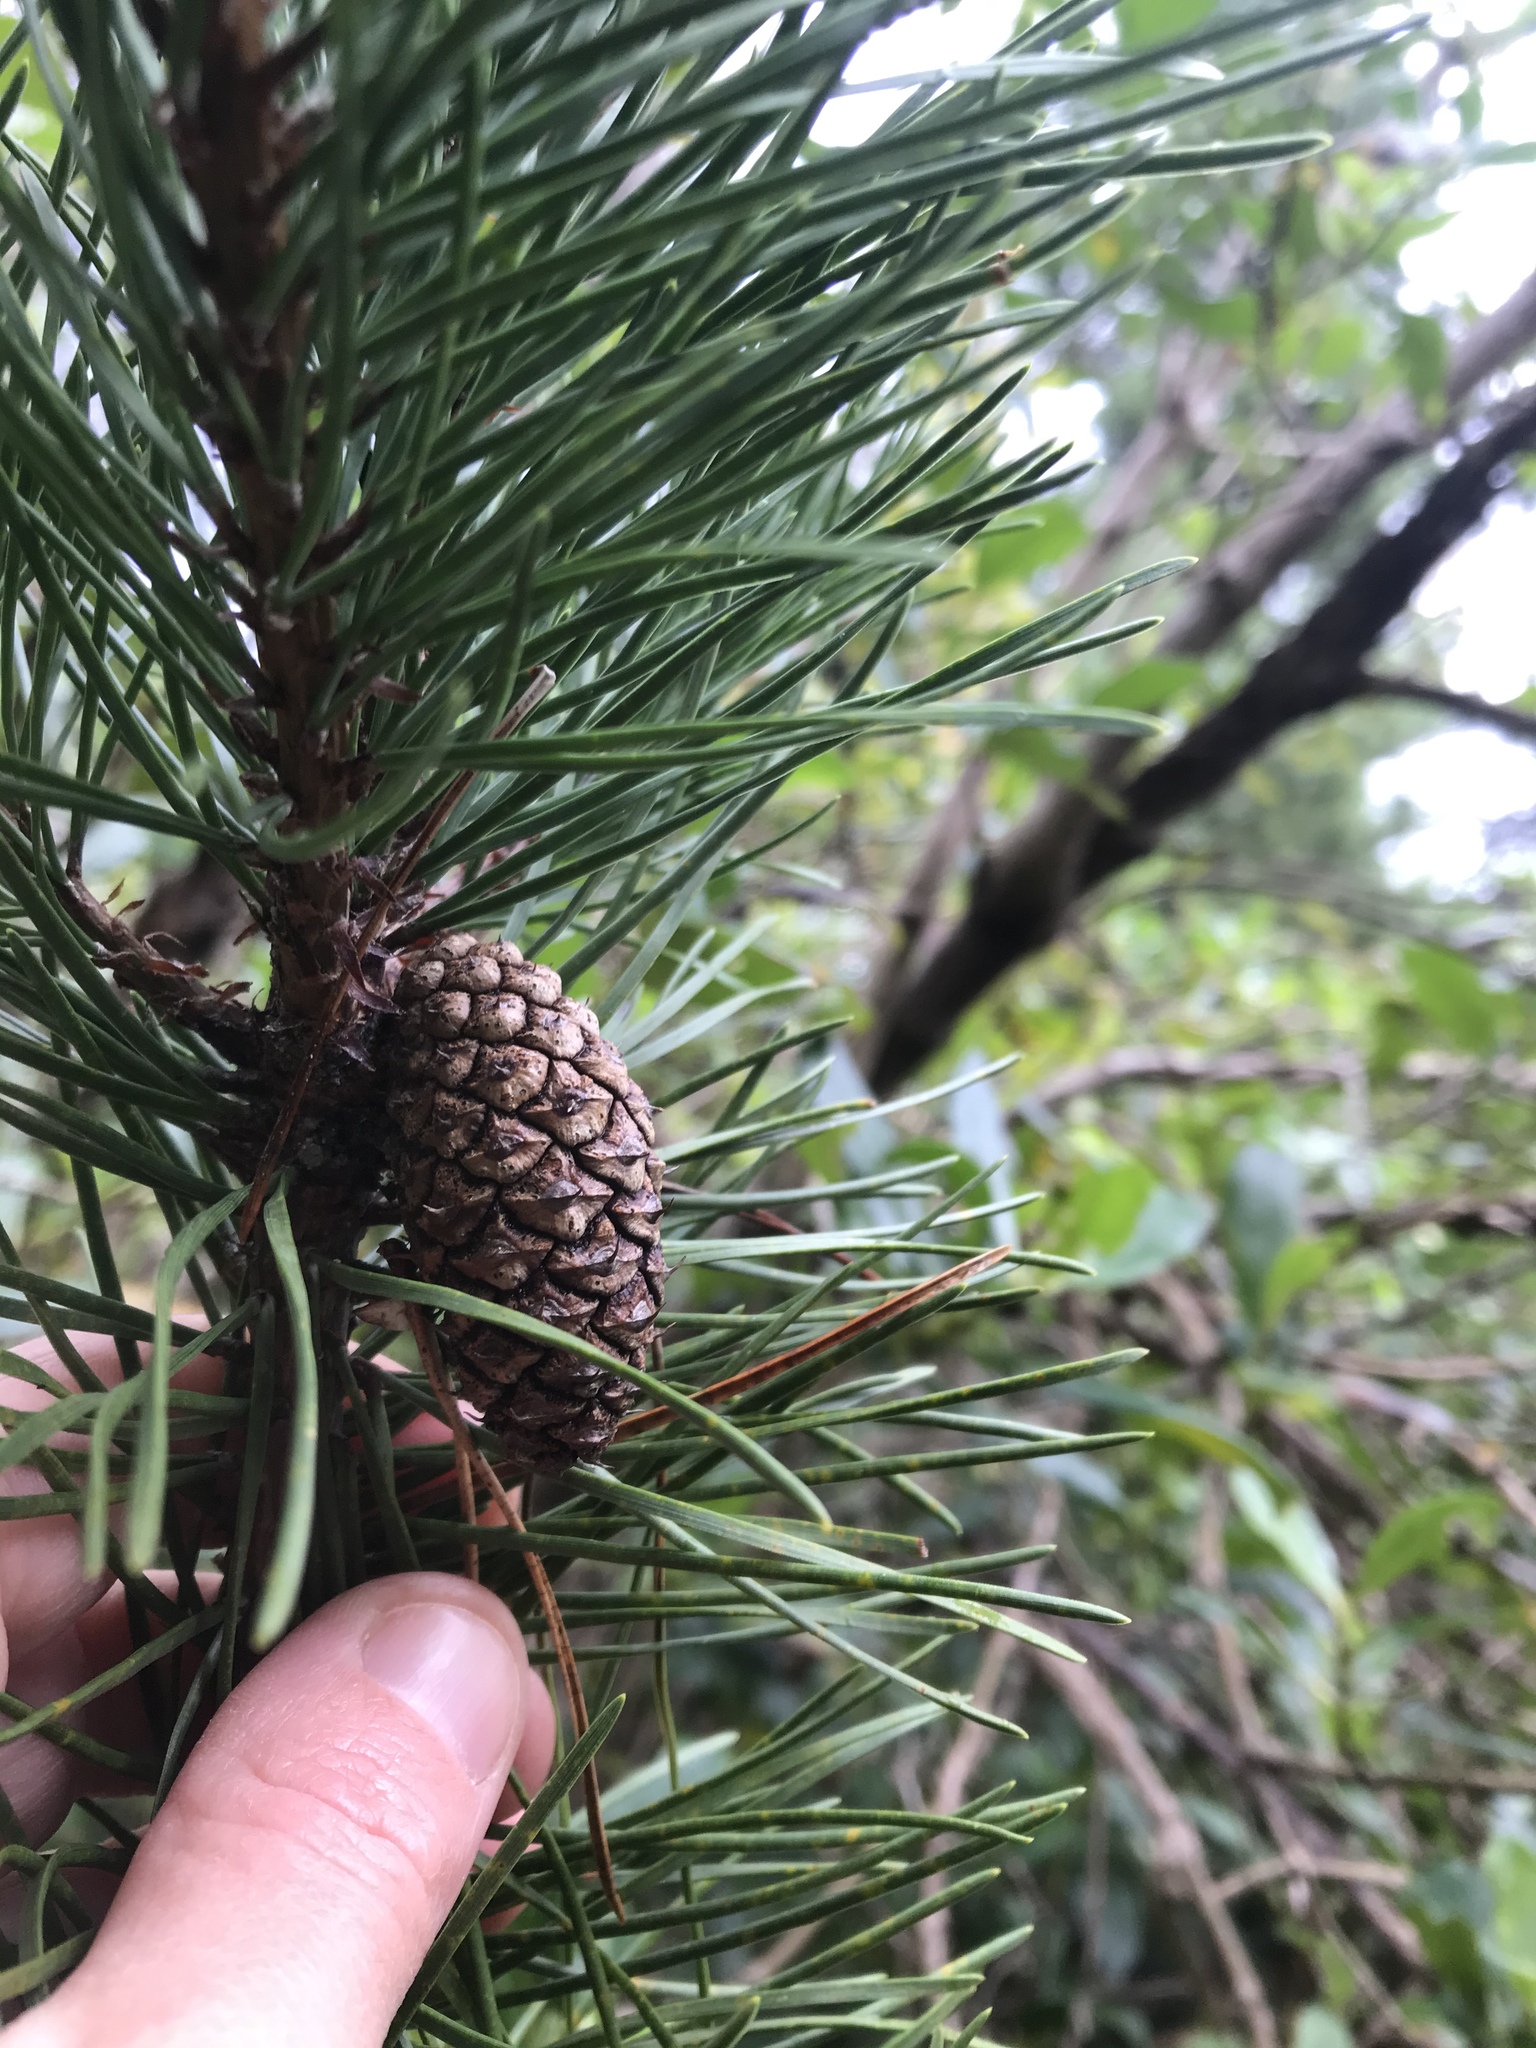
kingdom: Plantae
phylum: Tracheophyta
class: Pinopsida
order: Pinales
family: Pinaceae
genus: Pinus
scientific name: Pinus contorta
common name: Lodgepole pine
